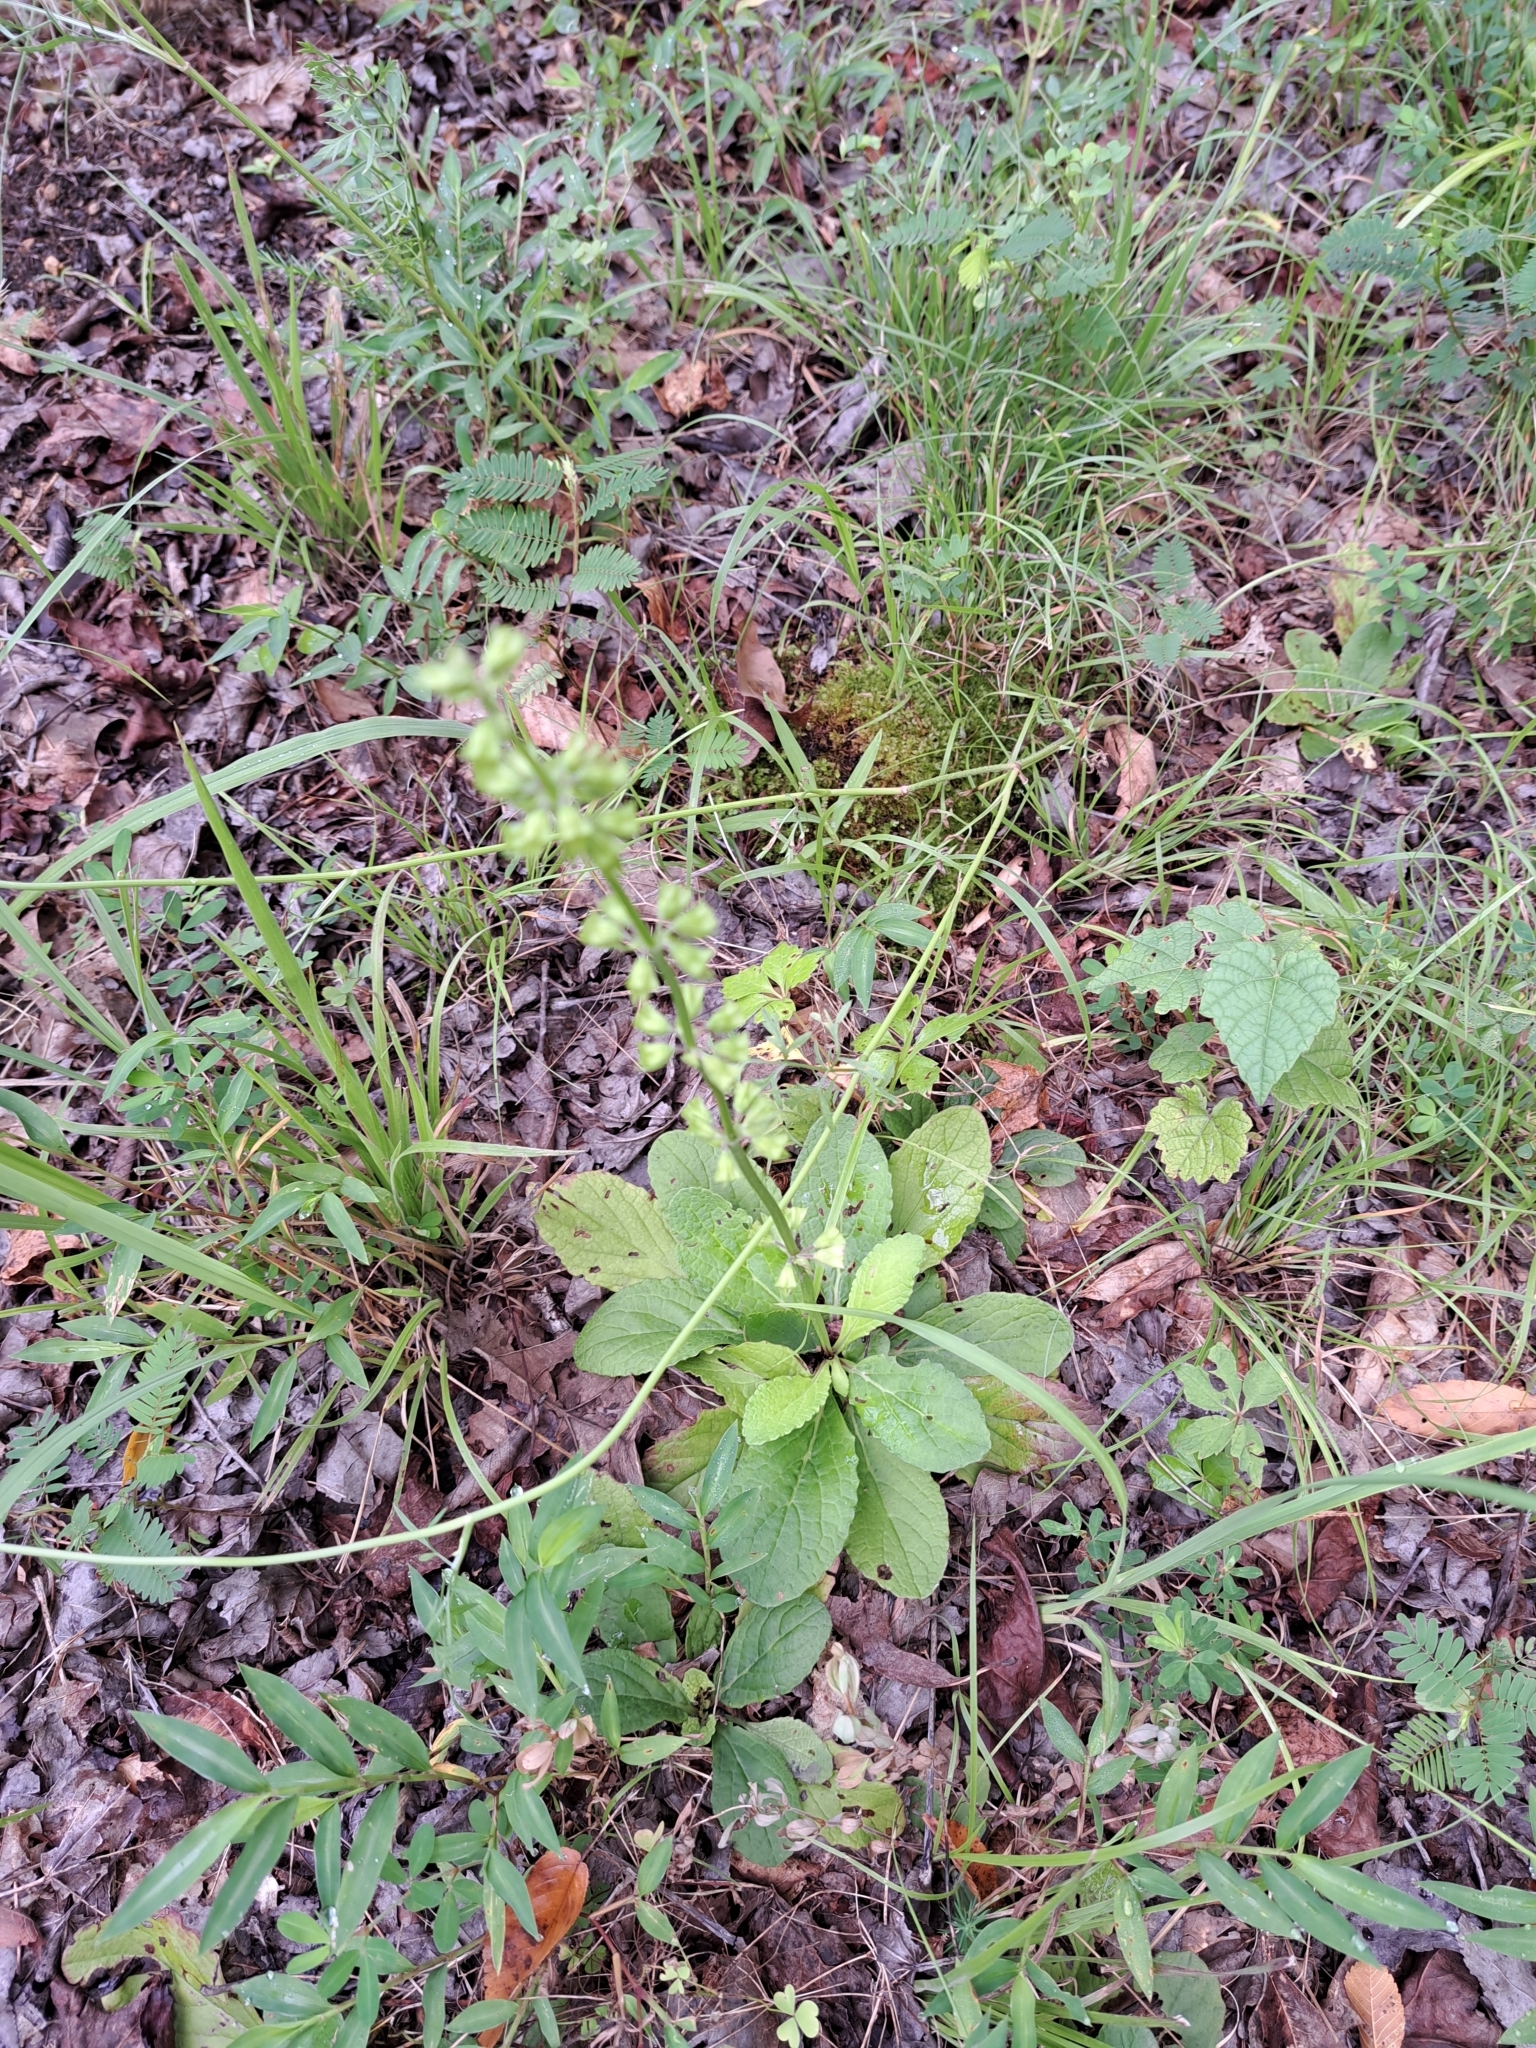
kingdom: Plantae
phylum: Tracheophyta
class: Magnoliopsida
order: Lamiales
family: Lamiaceae
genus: Salvia
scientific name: Salvia lyrata
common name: Cancerweed
